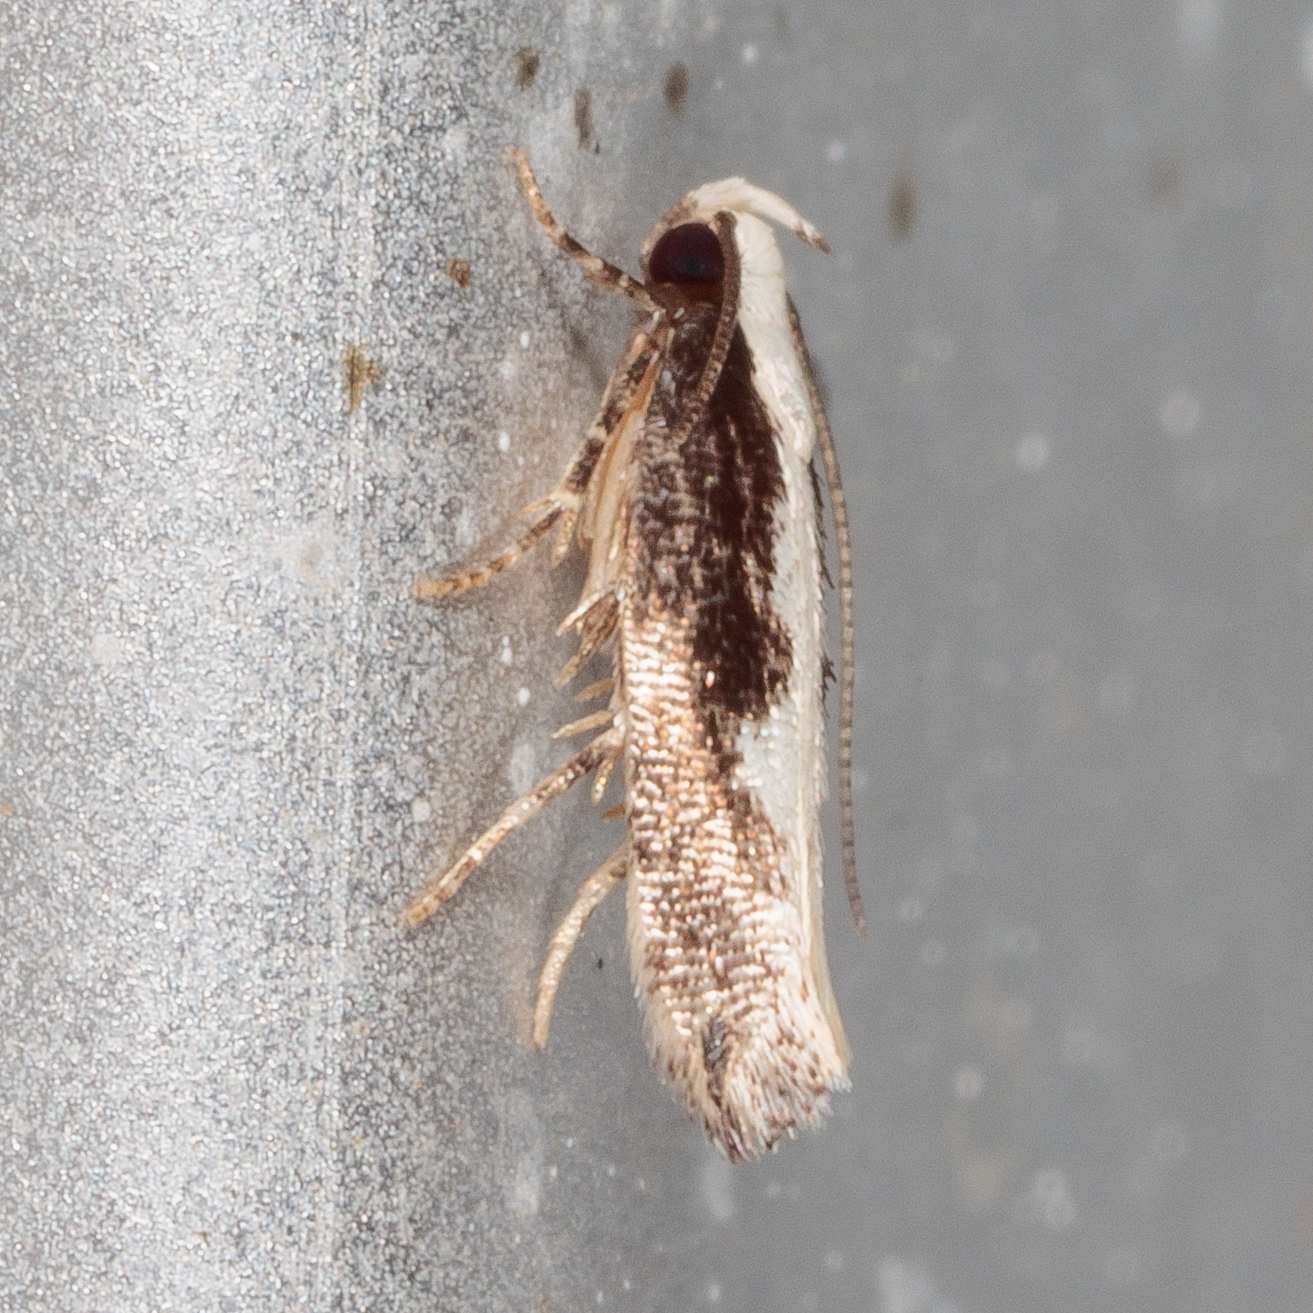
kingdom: Animalia
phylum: Arthropoda
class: Insecta
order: Lepidoptera
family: Gelechiidae
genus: Agnippe
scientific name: Agnippe prunifoliella
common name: Skunk twirler
